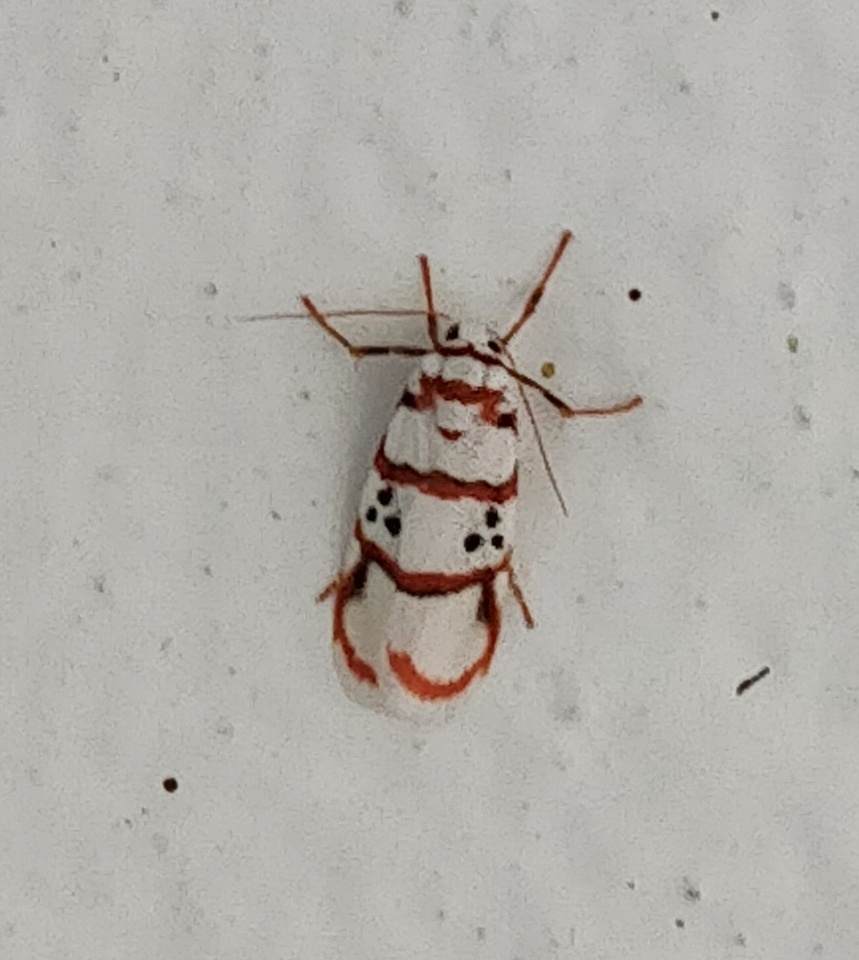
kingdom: Animalia
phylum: Arthropoda
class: Insecta
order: Lepidoptera
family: Erebidae
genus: Cyana
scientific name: Cyana peregrina
